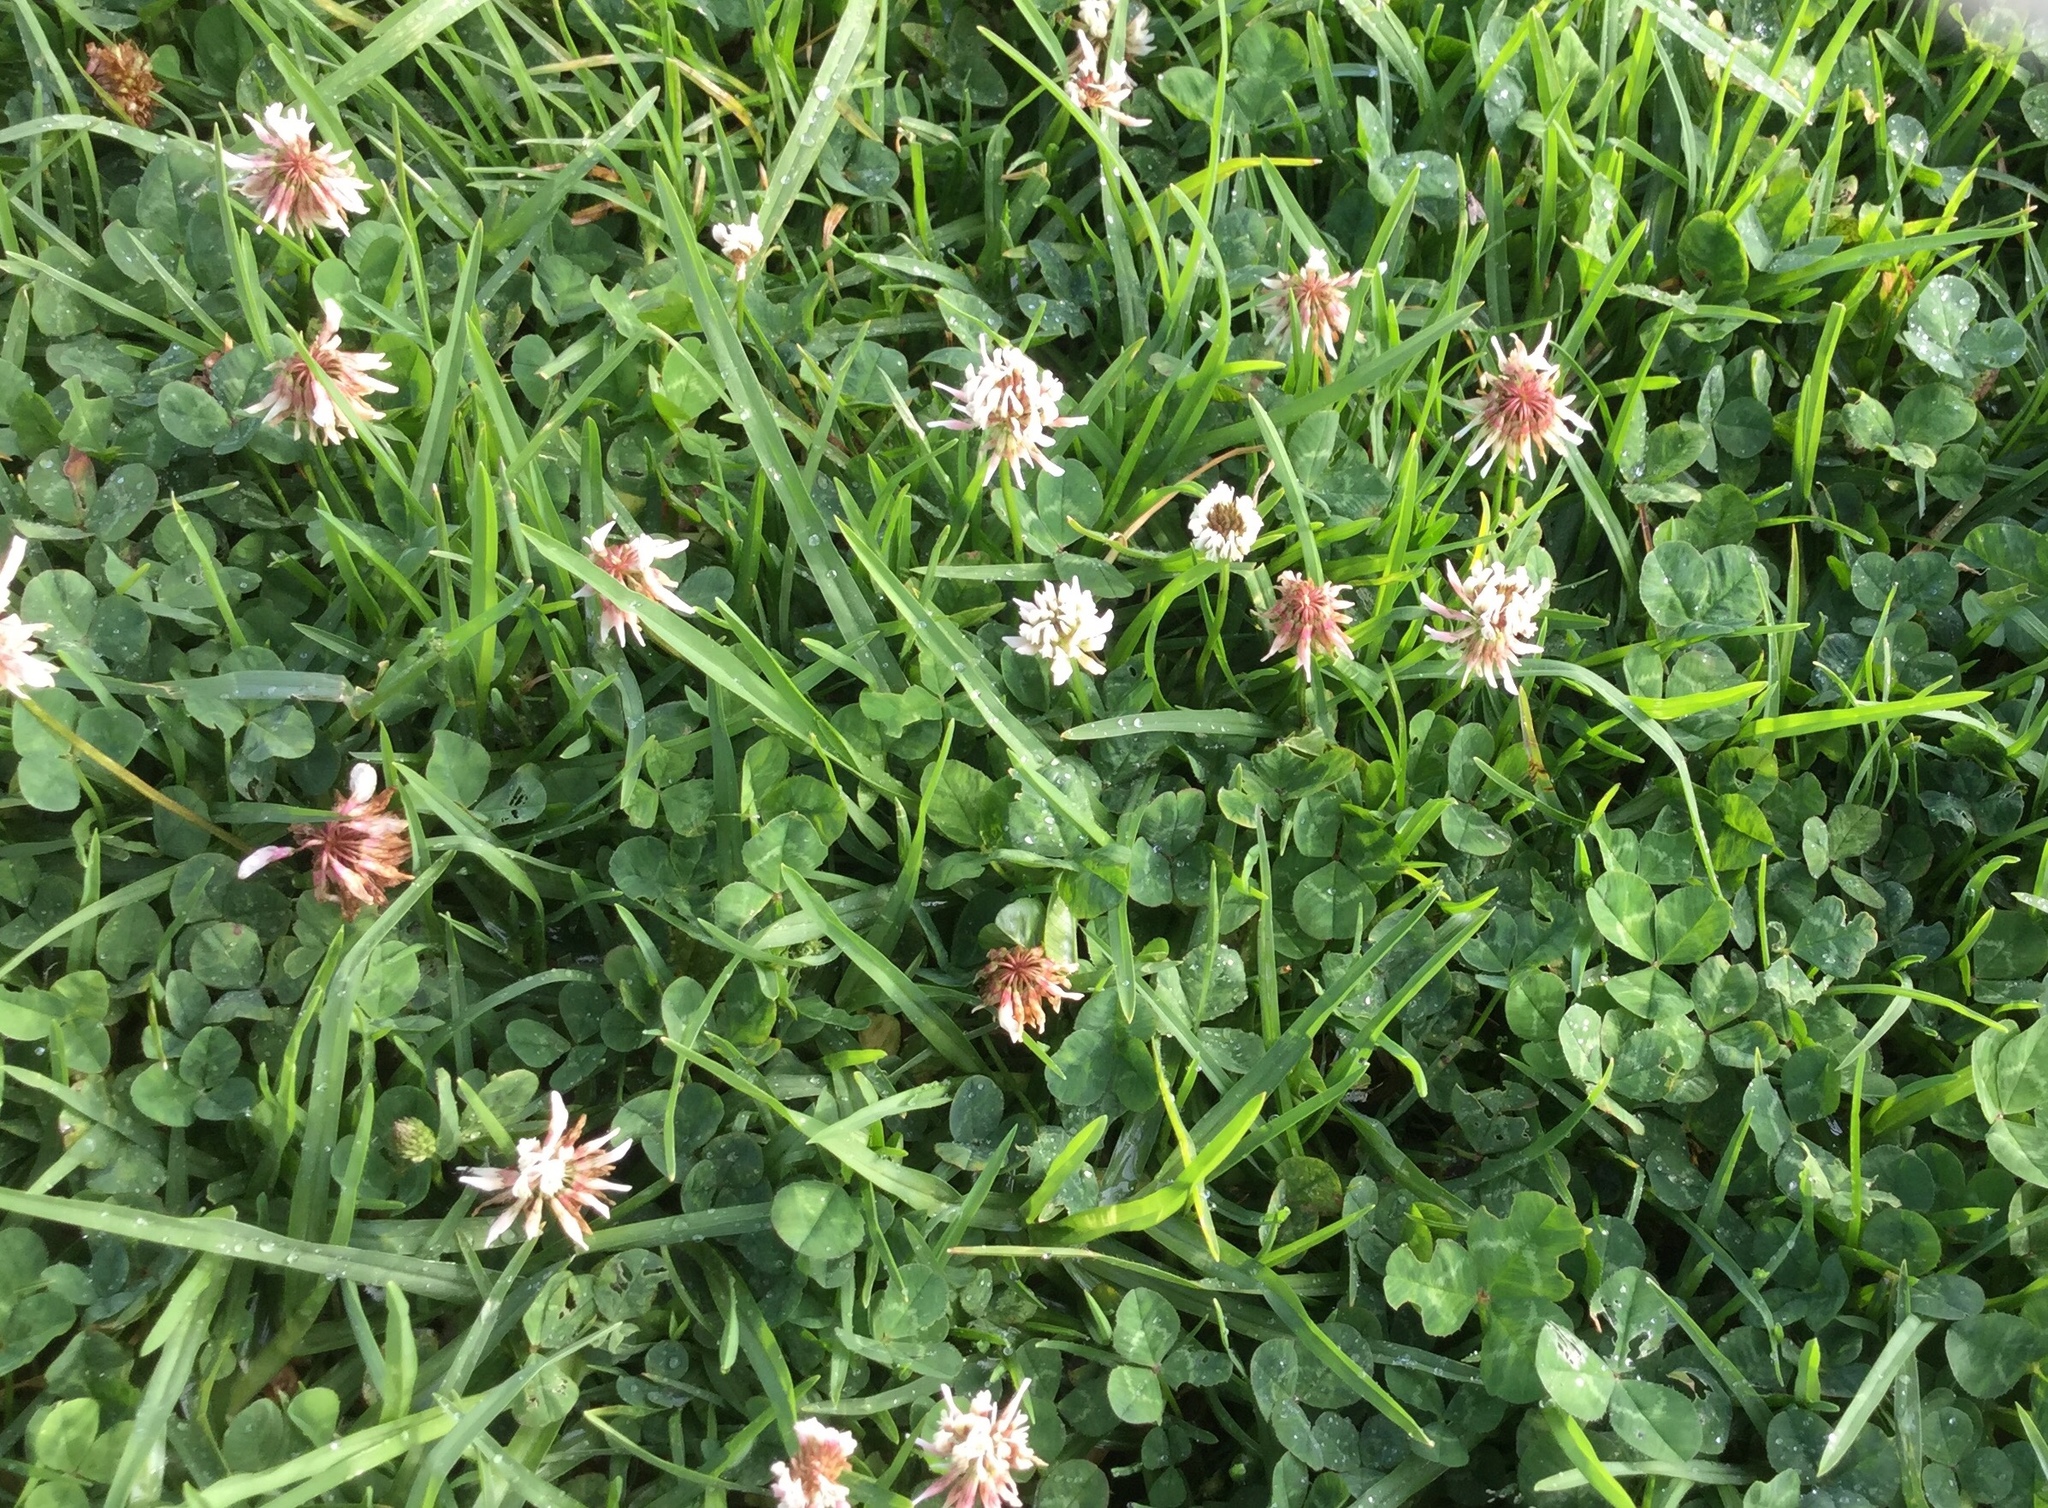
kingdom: Plantae
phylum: Tracheophyta
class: Magnoliopsida
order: Fabales
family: Fabaceae
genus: Trifolium
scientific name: Trifolium repens
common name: White clover
